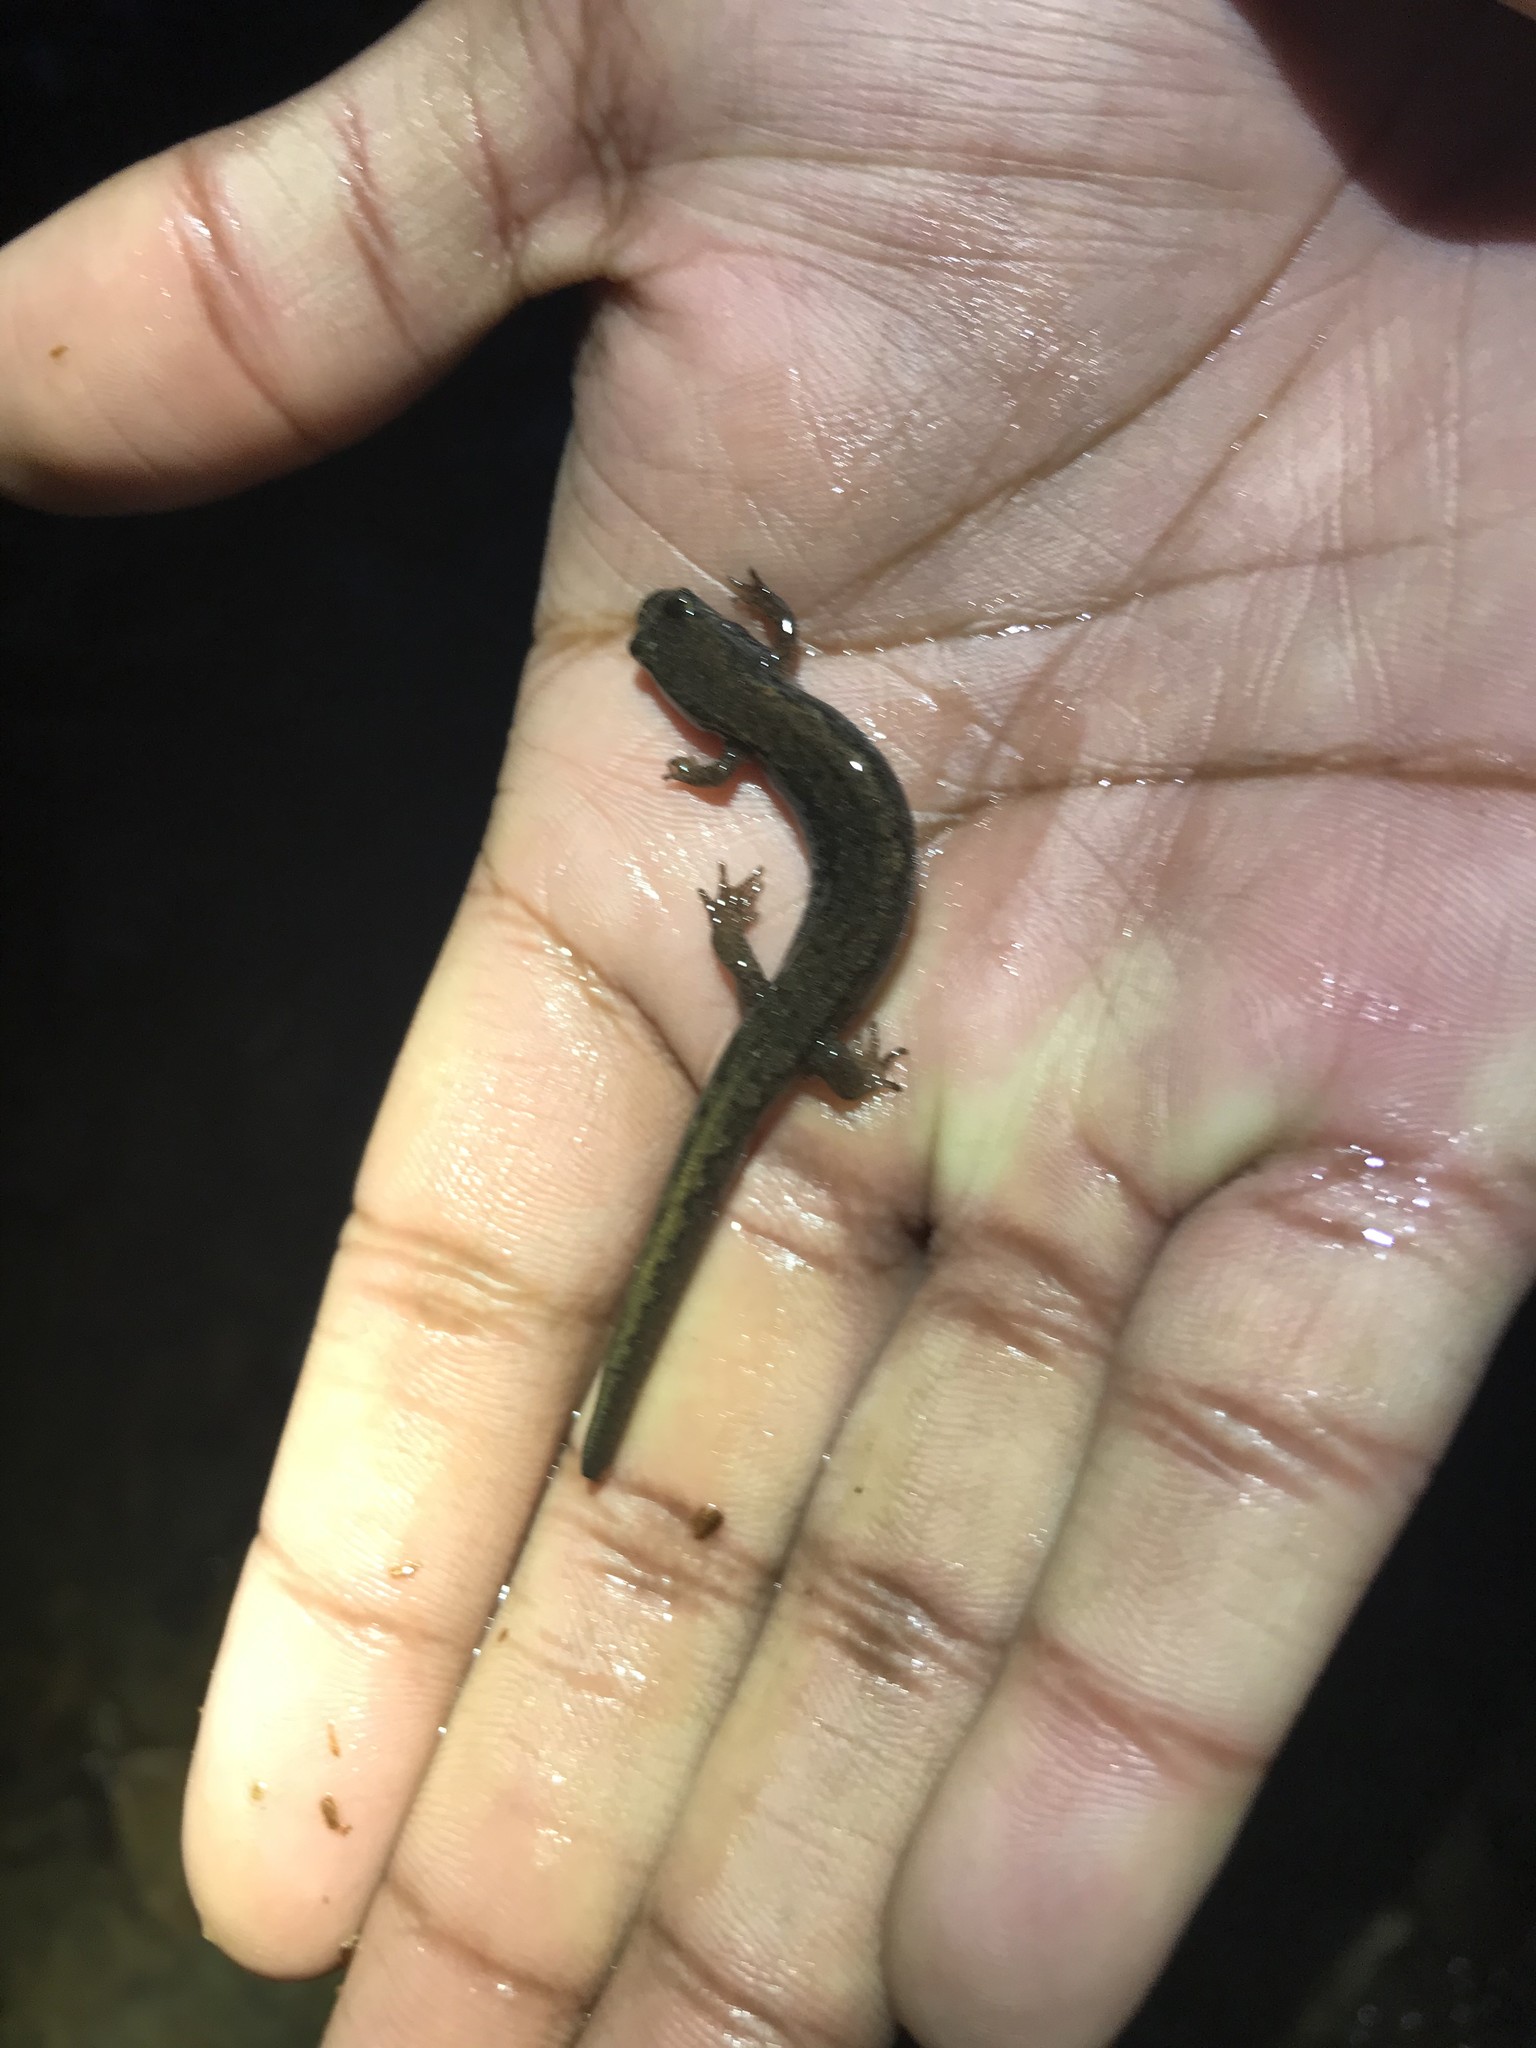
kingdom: Animalia
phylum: Chordata
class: Amphibia
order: Caudata
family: Plethodontidae
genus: Desmognathus
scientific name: Desmognathus fuscus
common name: Northern dusky salamander
